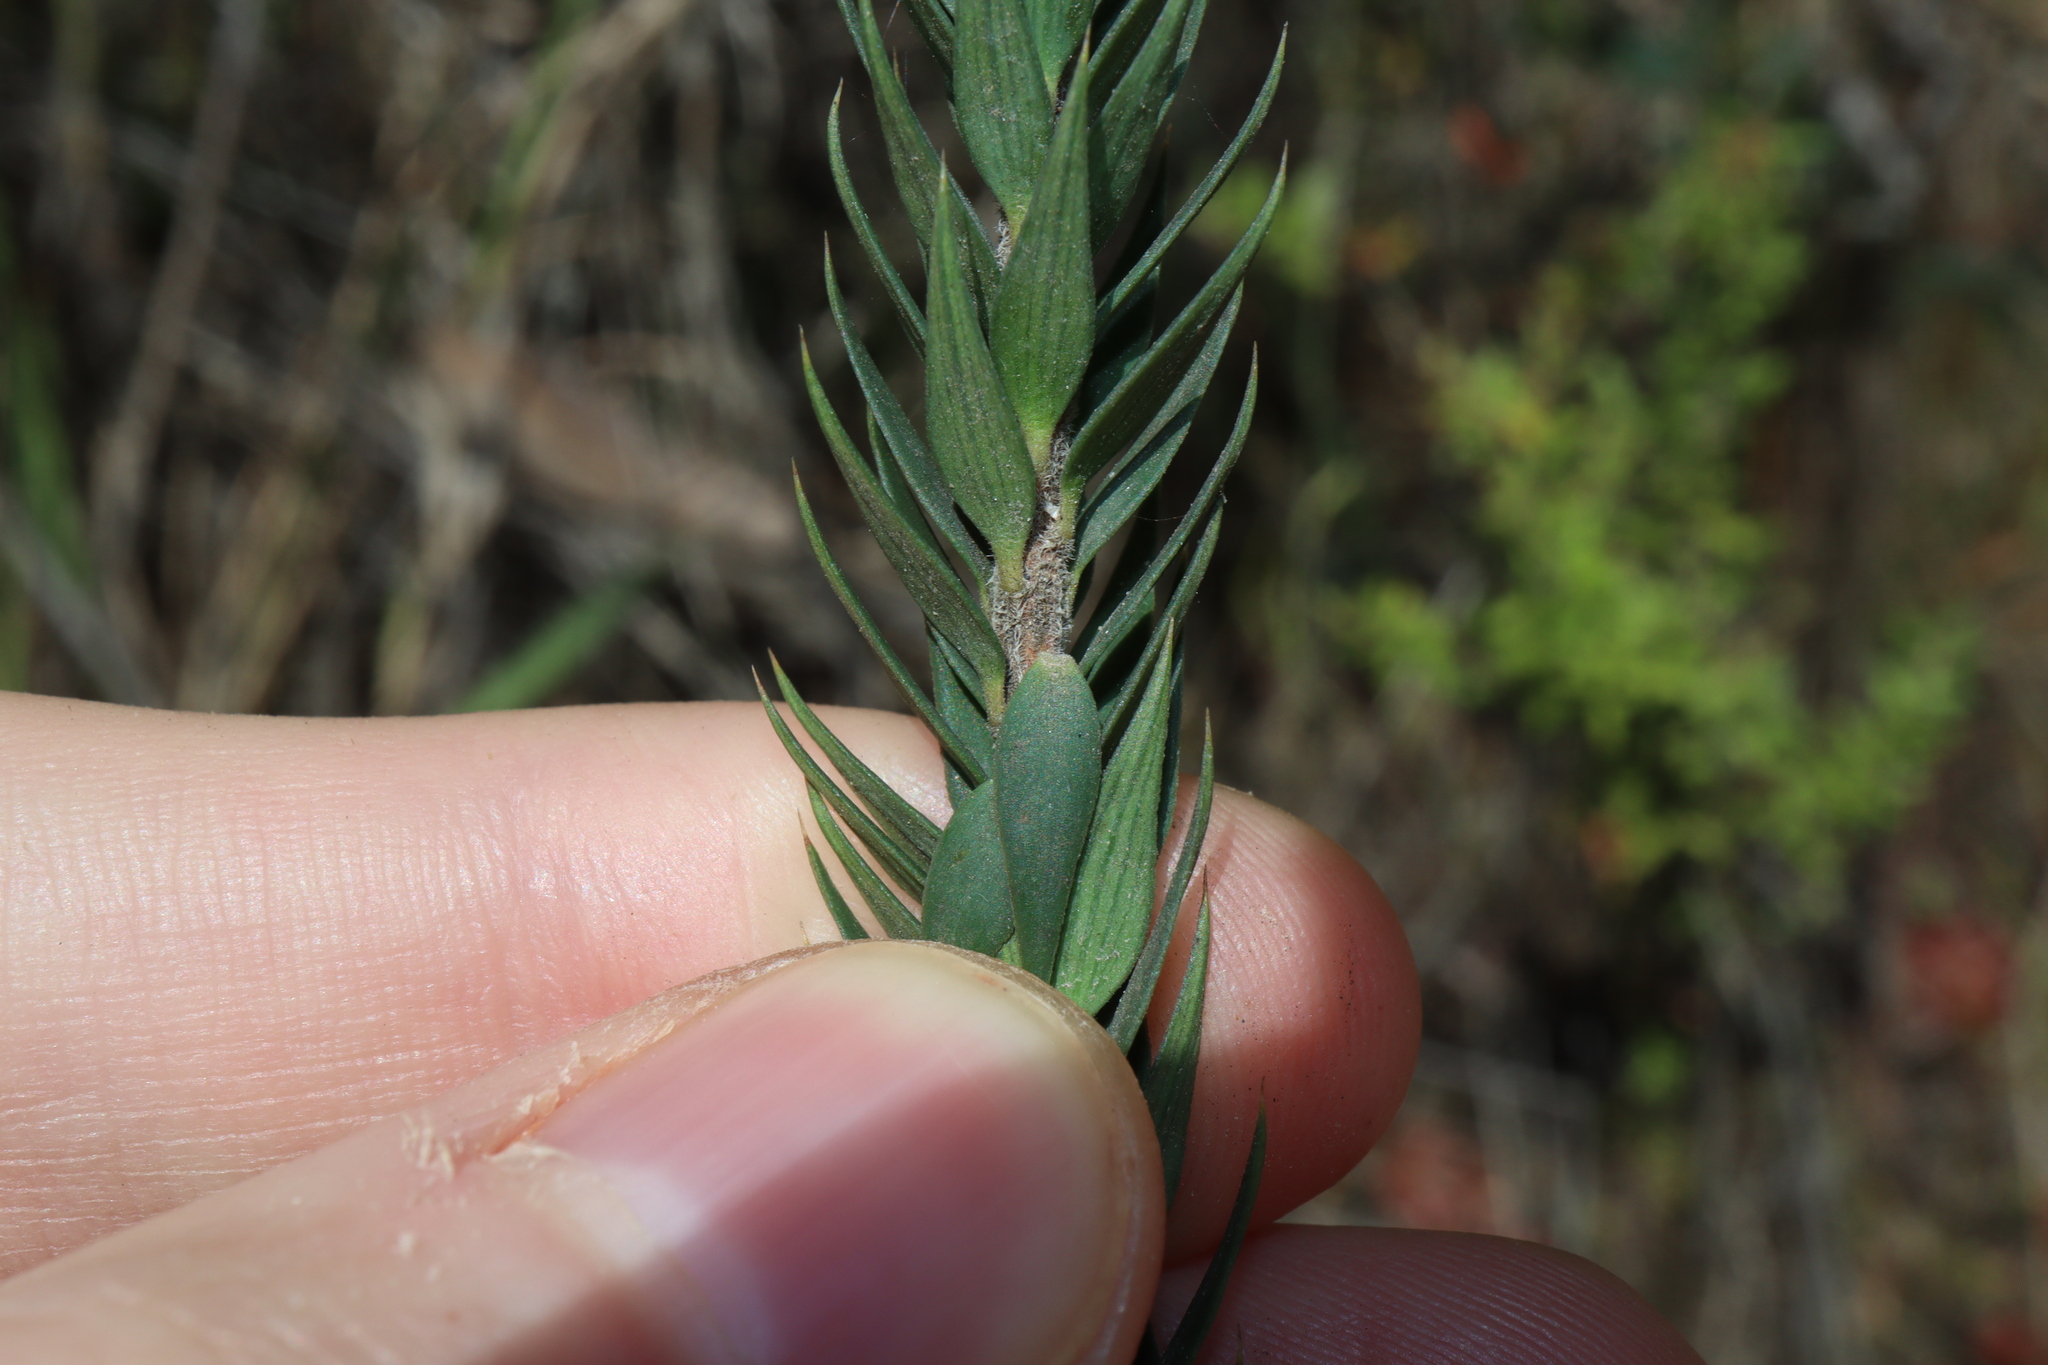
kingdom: Plantae
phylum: Tracheophyta
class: Magnoliopsida
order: Ericales
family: Ericaceae
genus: Epacris
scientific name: Epacris paludosa
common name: Swamp-heath
